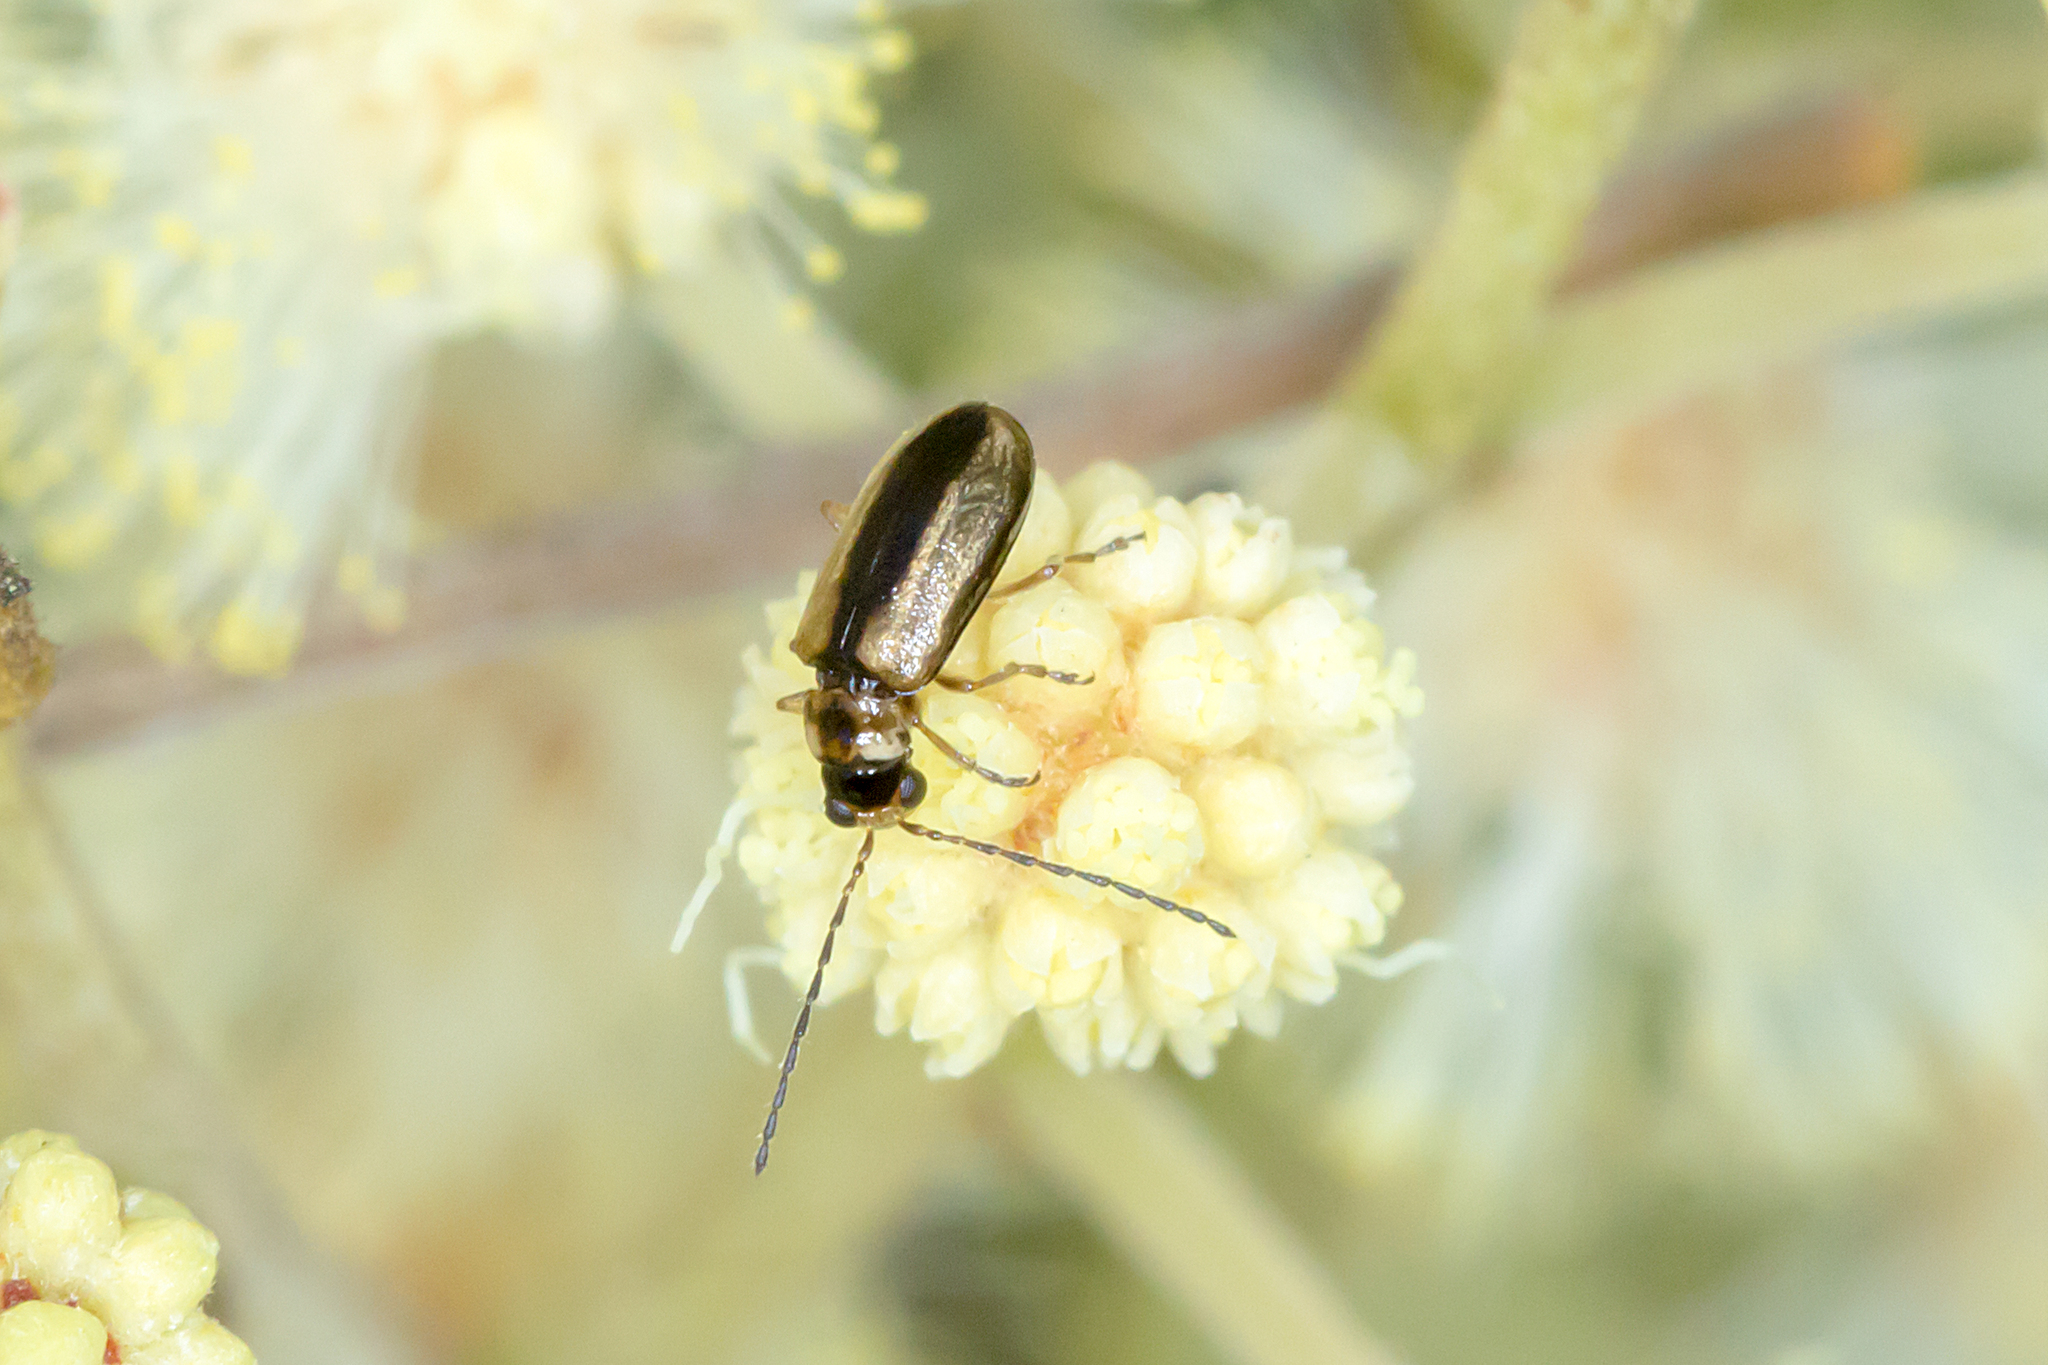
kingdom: Animalia
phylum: Arthropoda
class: Insecta
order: Coleoptera
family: Chrysomelidae
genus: Monolepta
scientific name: Monolepta
